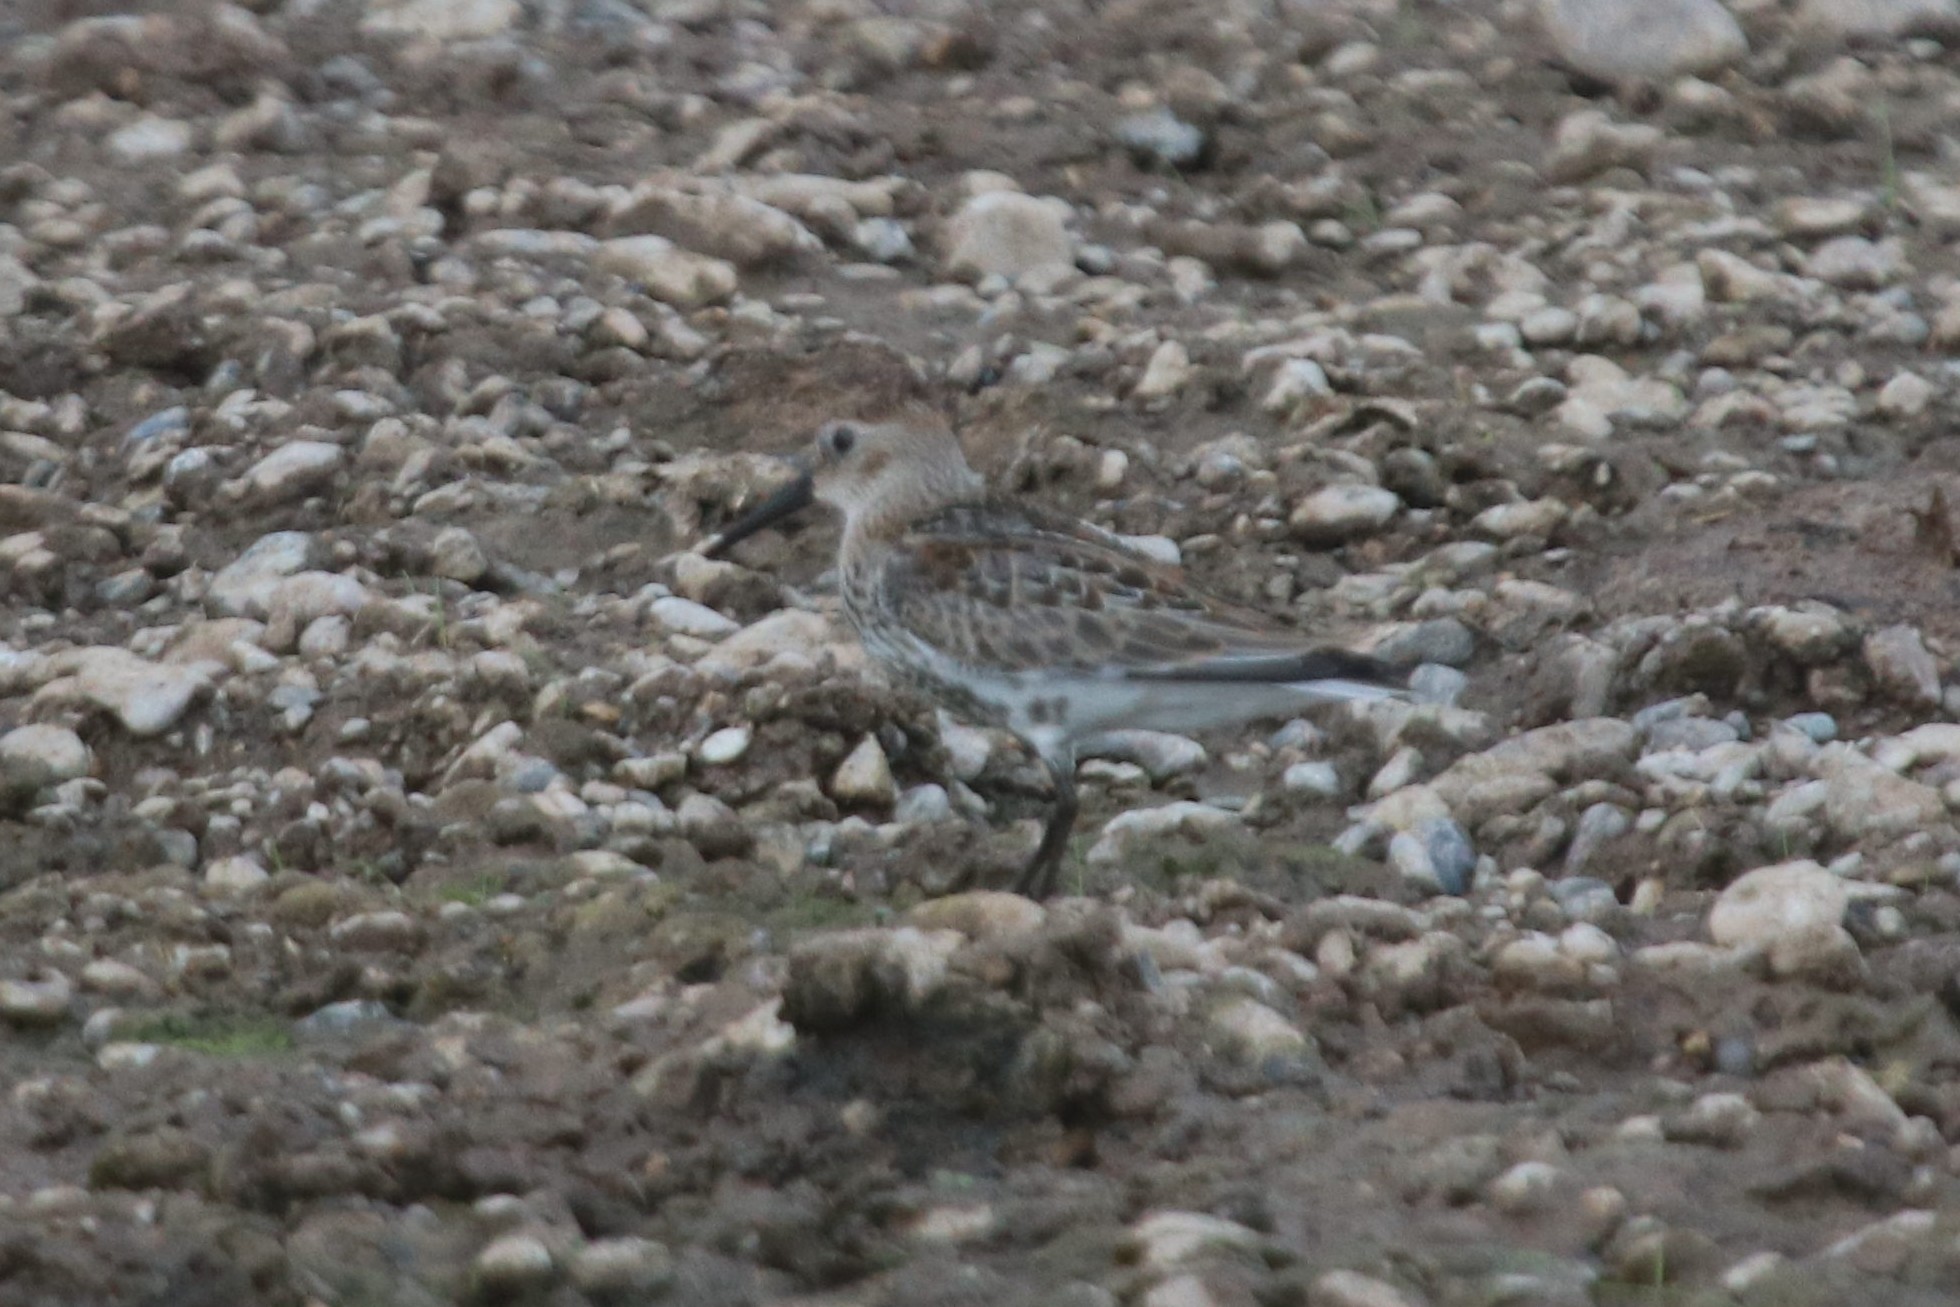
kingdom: Animalia
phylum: Chordata
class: Aves
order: Charadriiformes
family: Scolopacidae
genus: Calidris
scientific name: Calidris alpina
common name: Dunlin
